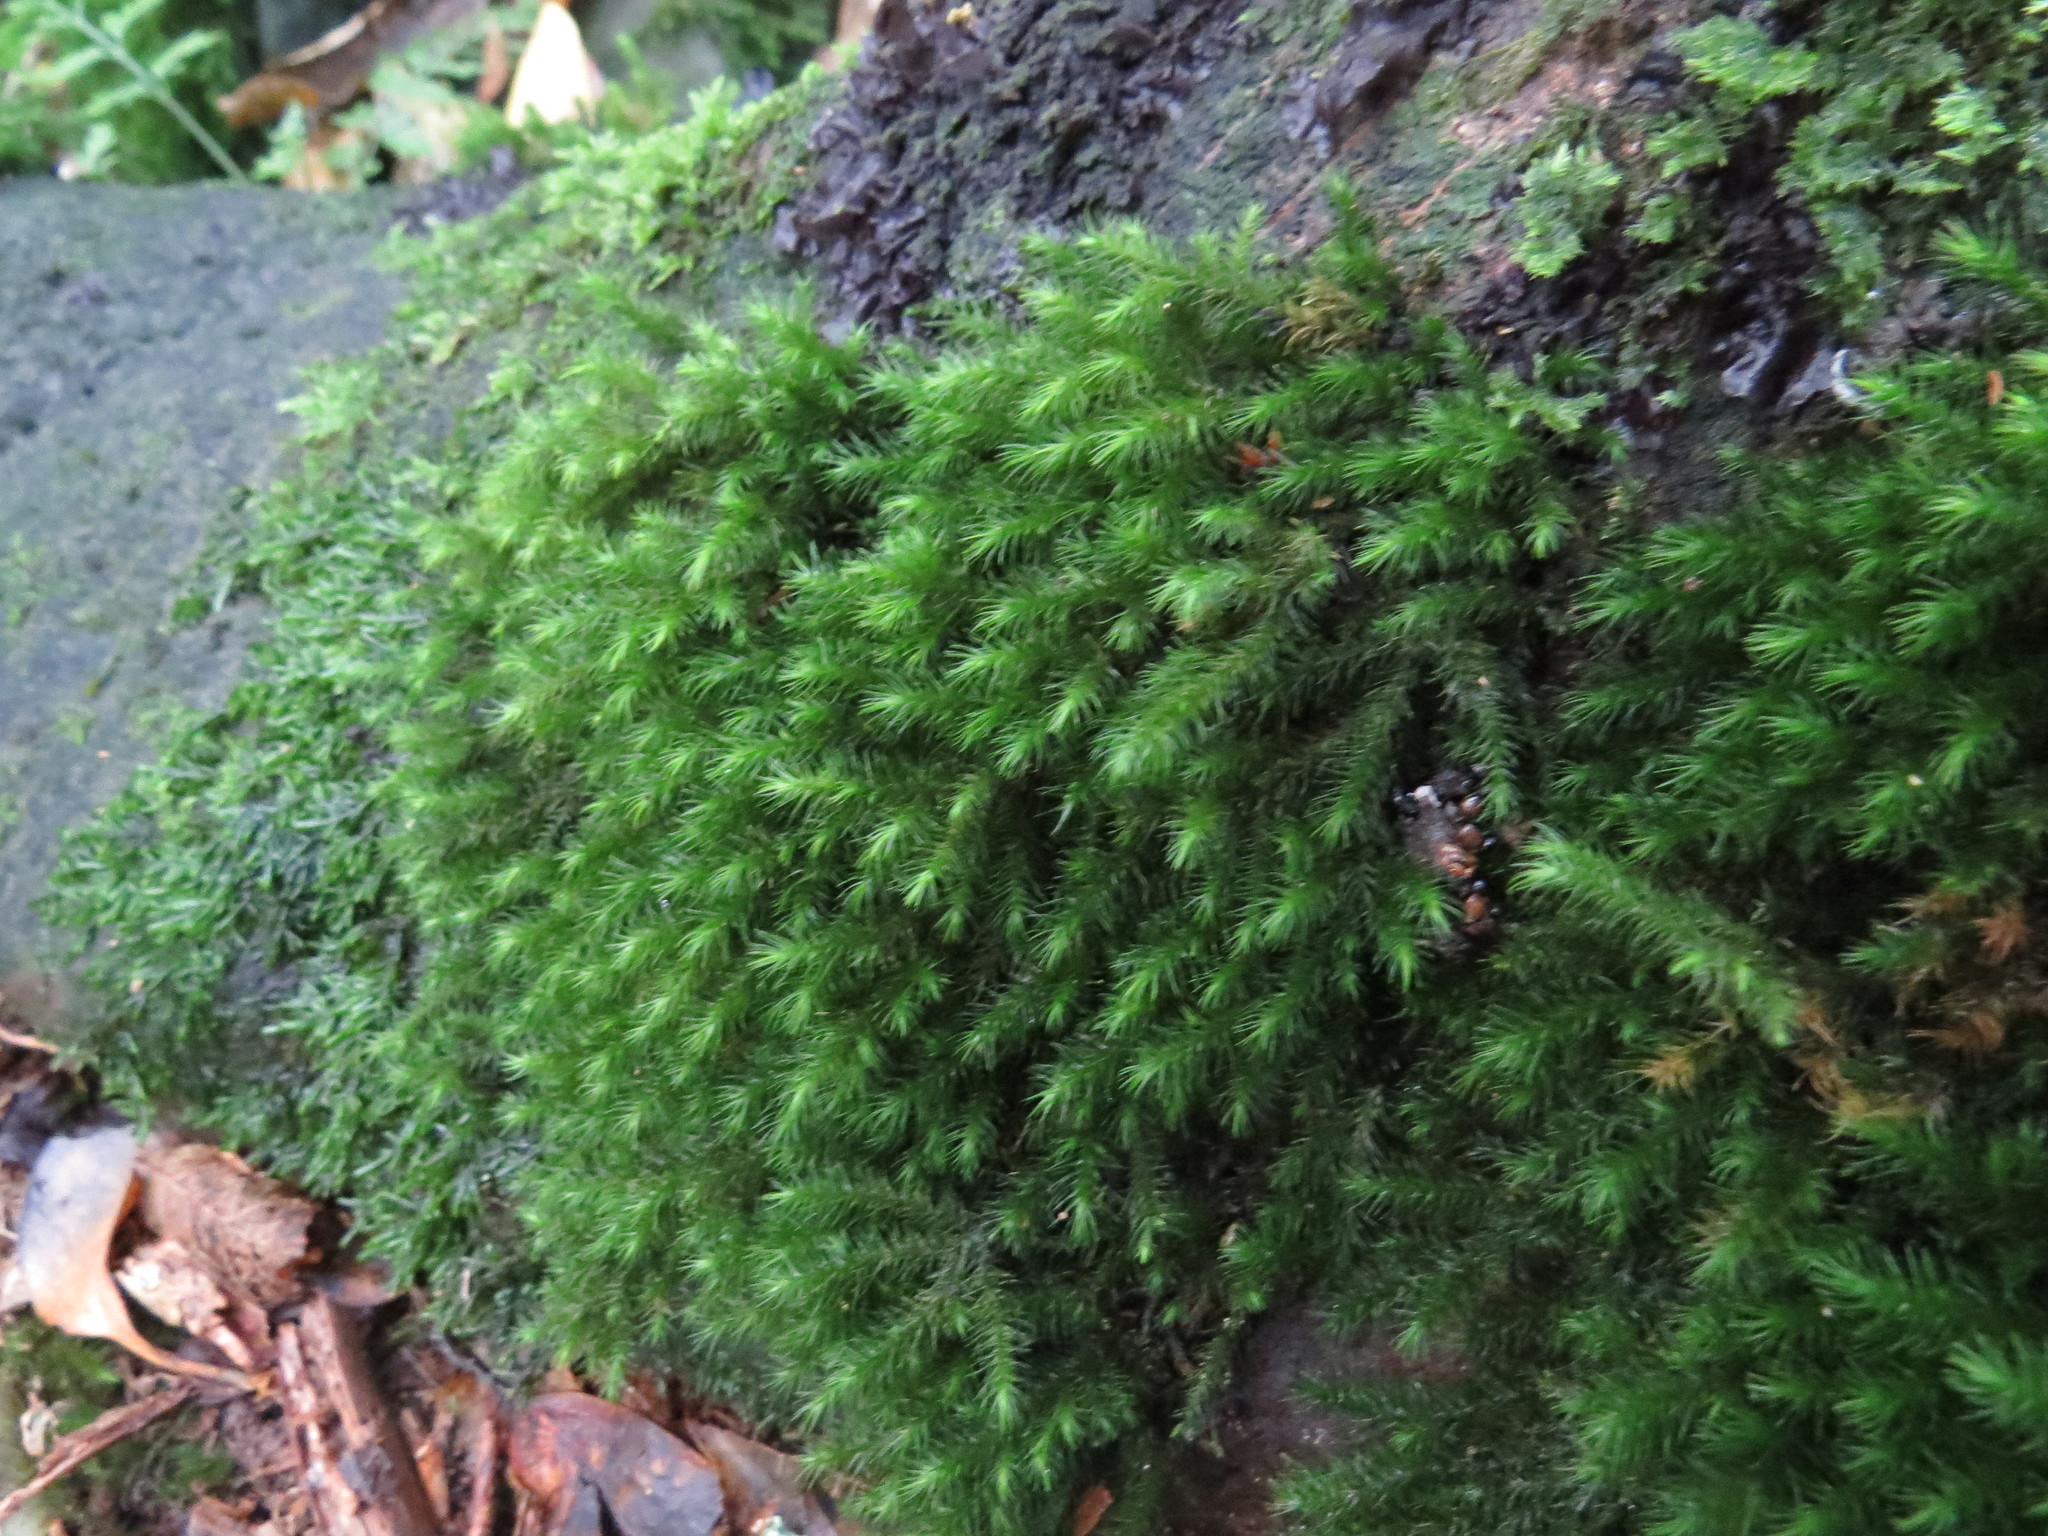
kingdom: Plantae
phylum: Bryophyta
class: Bryopsida
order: Hypnales
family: Neckeraceae
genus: Echinodiopsis
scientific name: Echinodiopsis hispida
